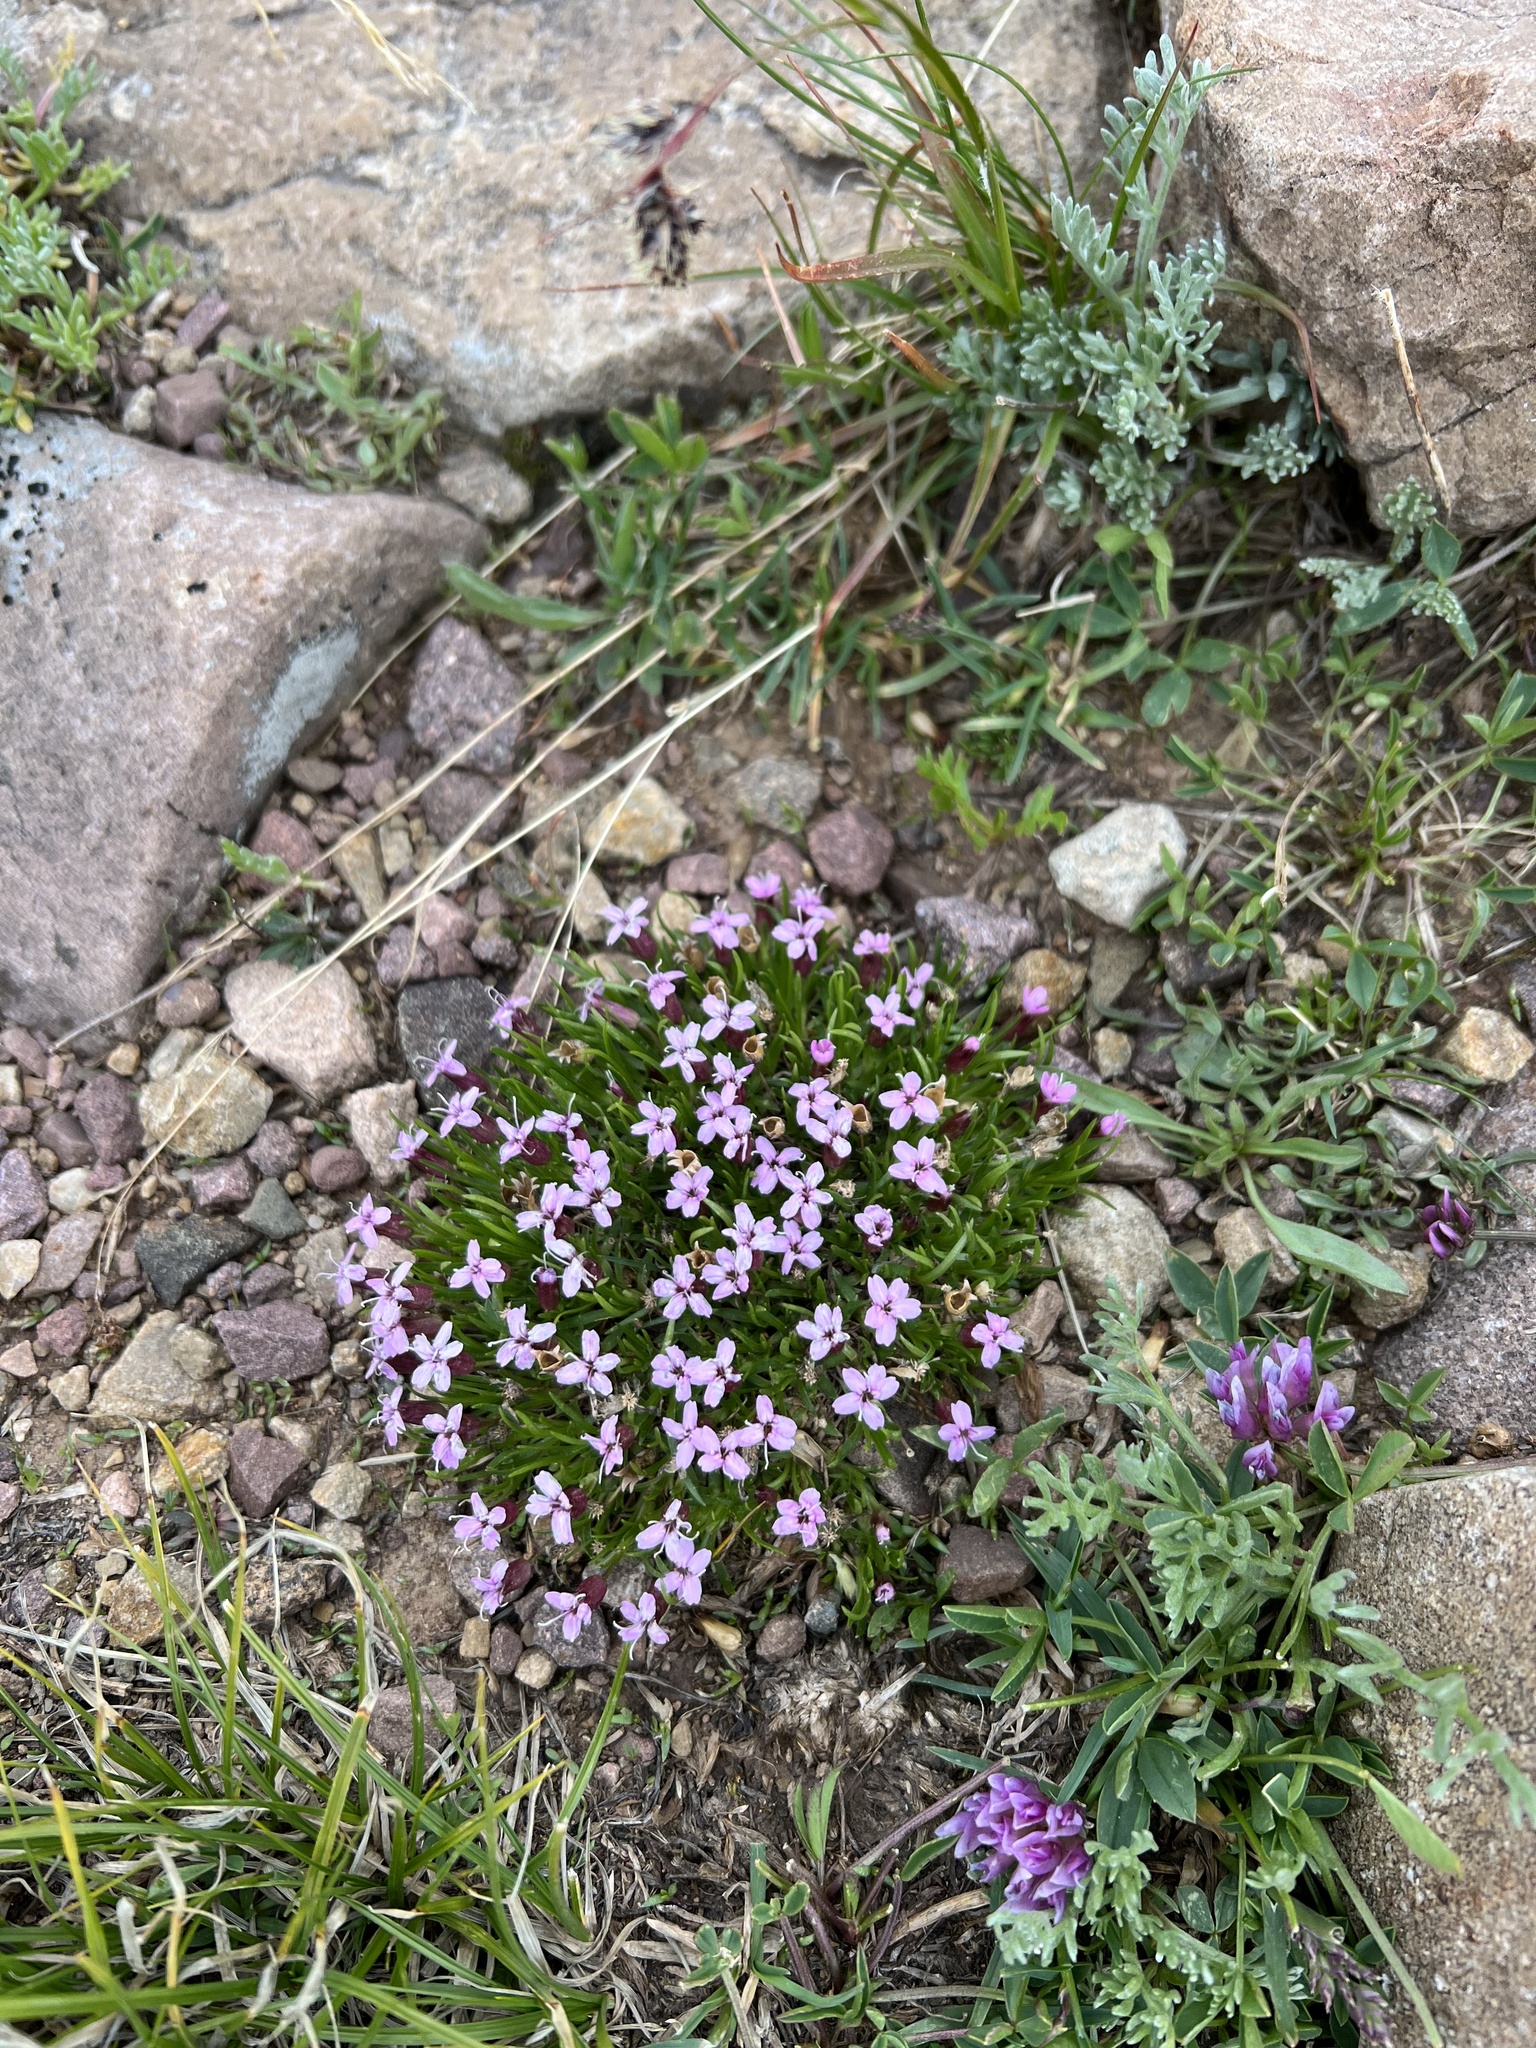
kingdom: Plantae
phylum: Tracheophyta
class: Magnoliopsida
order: Caryophyllales
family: Caryophyllaceae
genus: Silene
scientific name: Silene acaulis
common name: Moss campion
